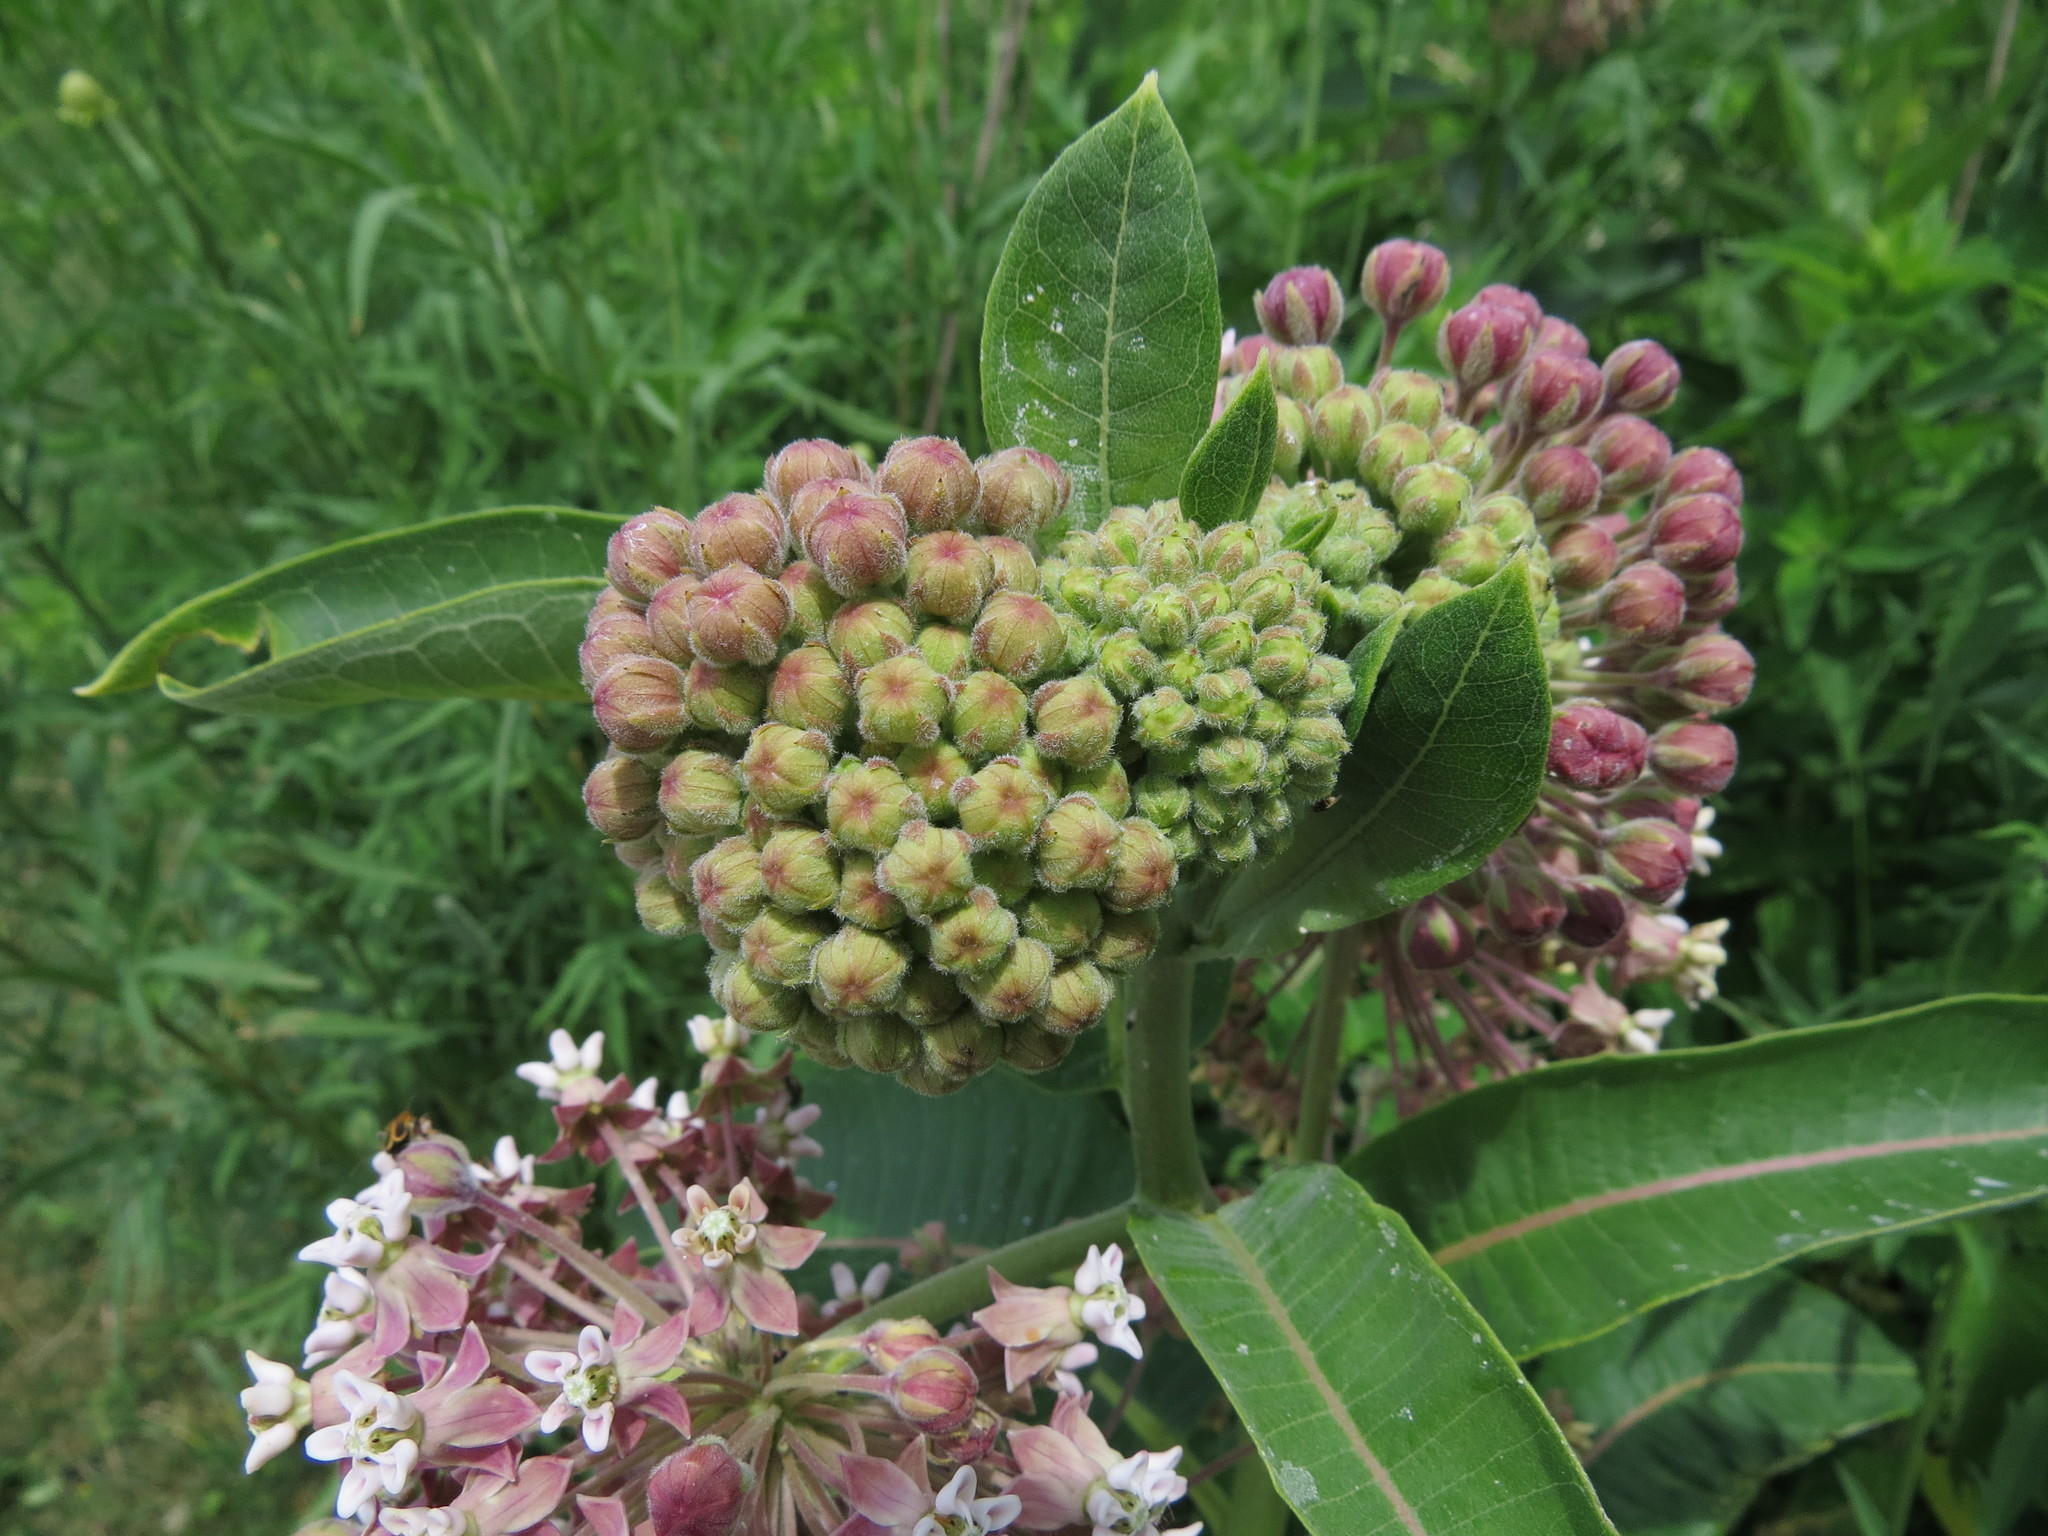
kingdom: Plantae
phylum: Tracheophyta
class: Magnoliopsida
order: Gentianales
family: Apocynaceae
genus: Asclepias
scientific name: Asclepias syriaca
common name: Common milkweed
